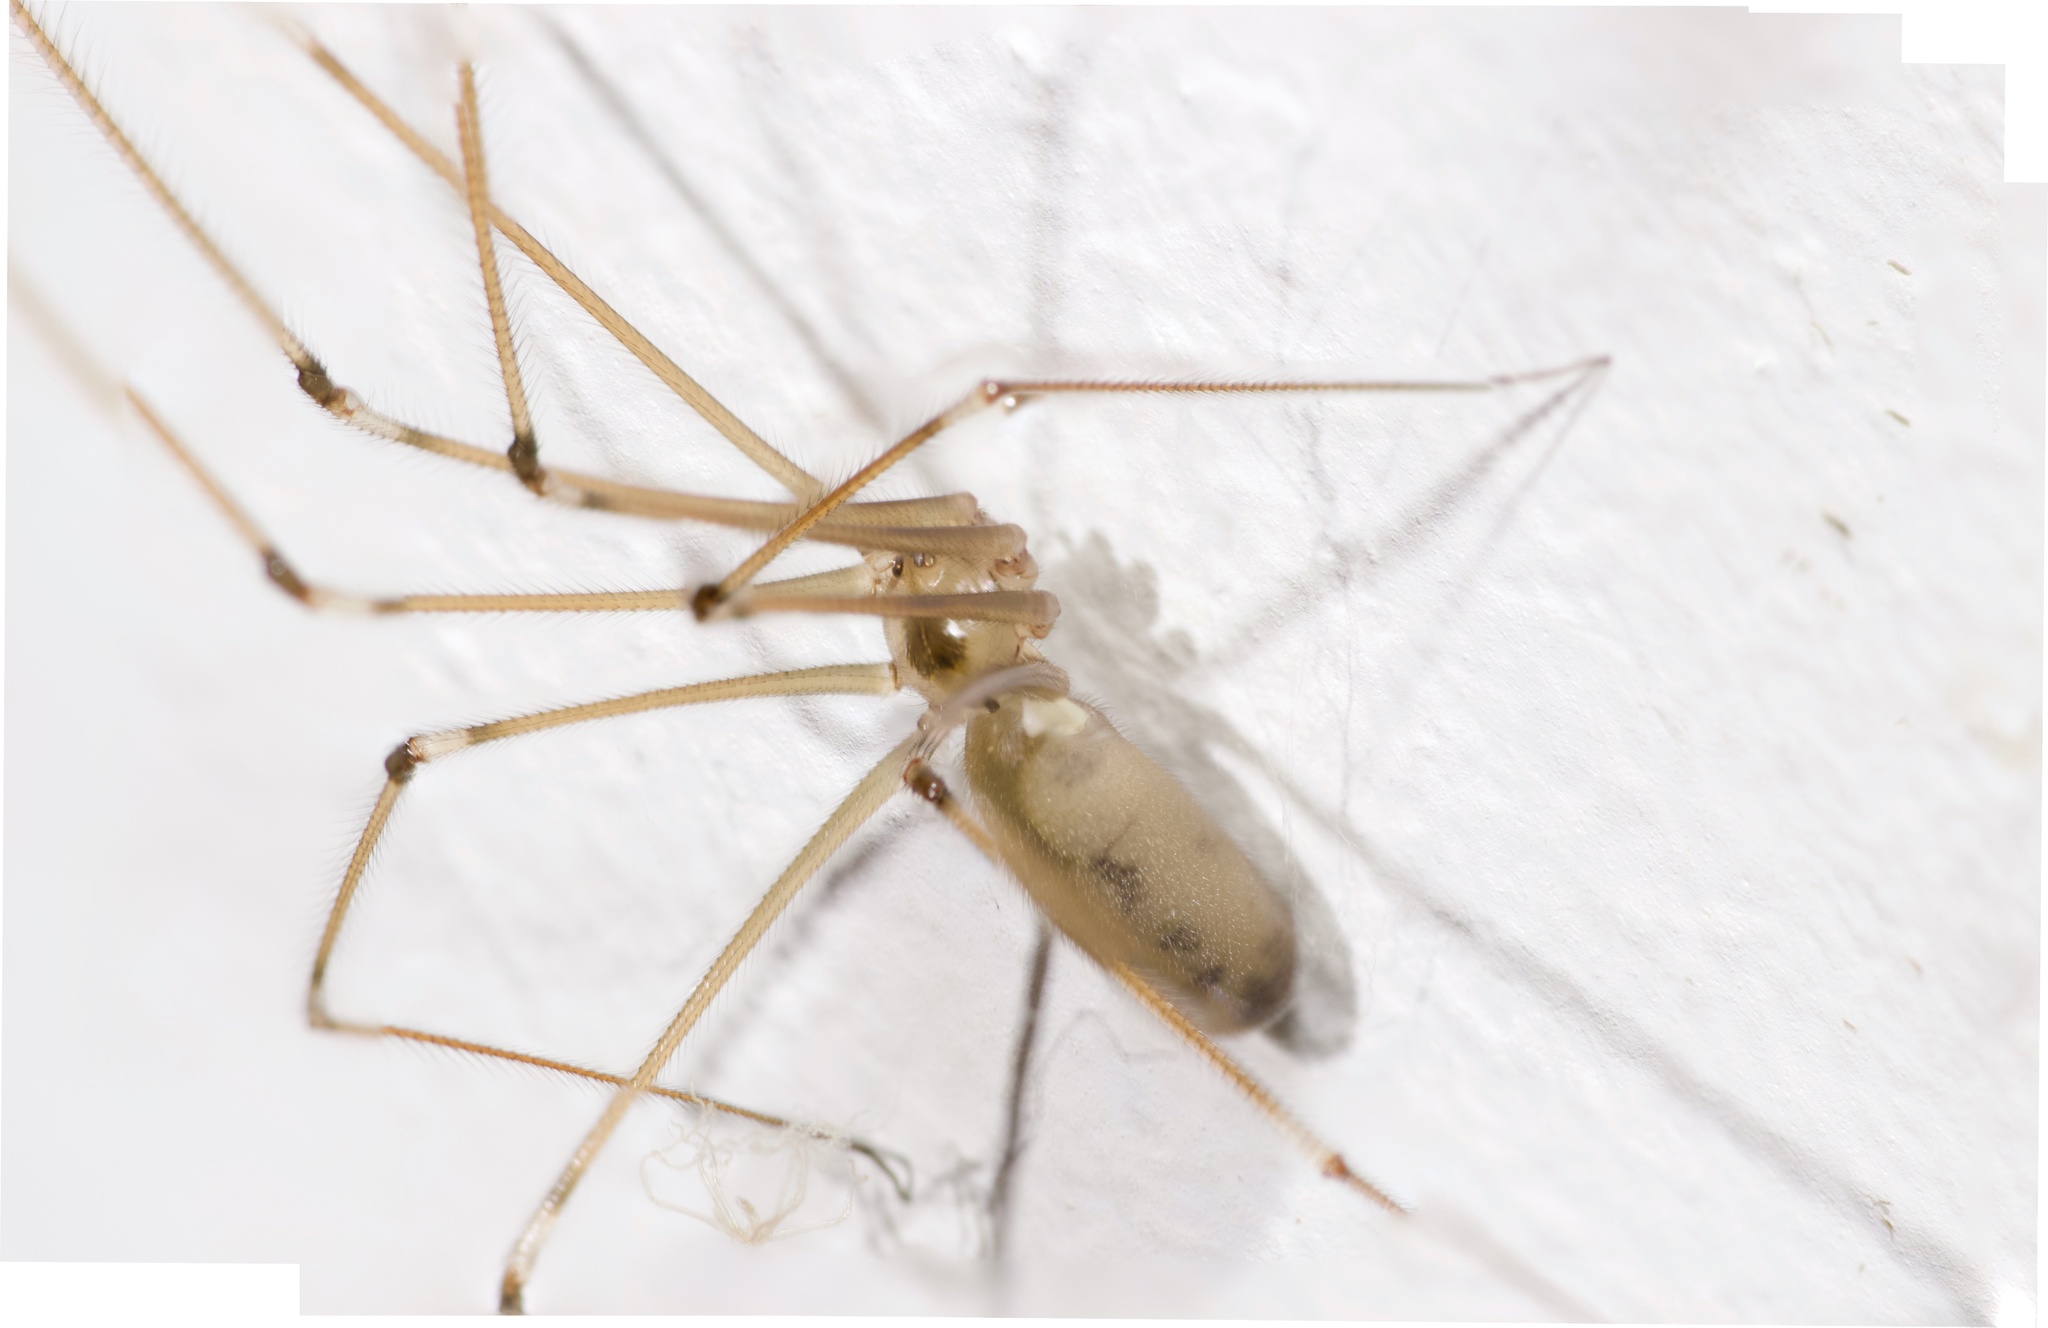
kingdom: Animalia
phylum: Arthropoda
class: Arachnida
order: Araneae
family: Pholcidae
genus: Pholcus
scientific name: Pholcus phalangioides
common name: Longbodied cellar spider
